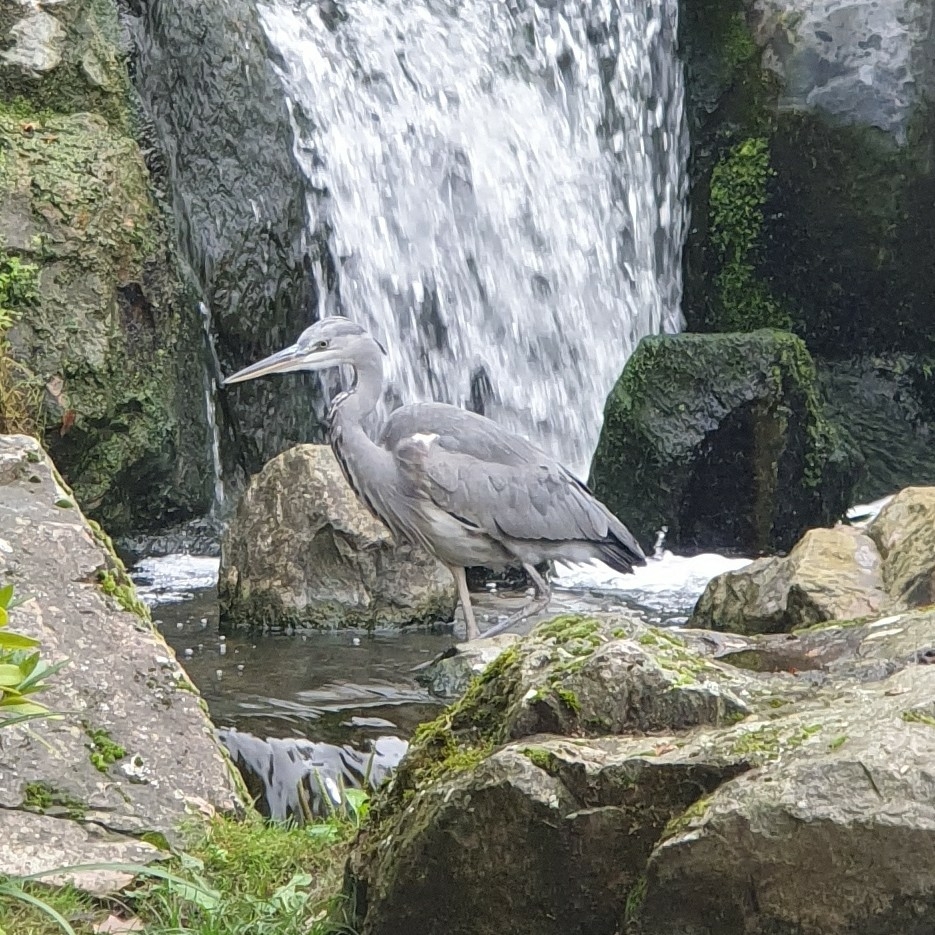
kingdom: Animalia
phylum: Chordata
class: Aves
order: Pelecaniformes
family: Ardeidae
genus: Ardea
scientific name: Ardea cinerea
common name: Grey heron
